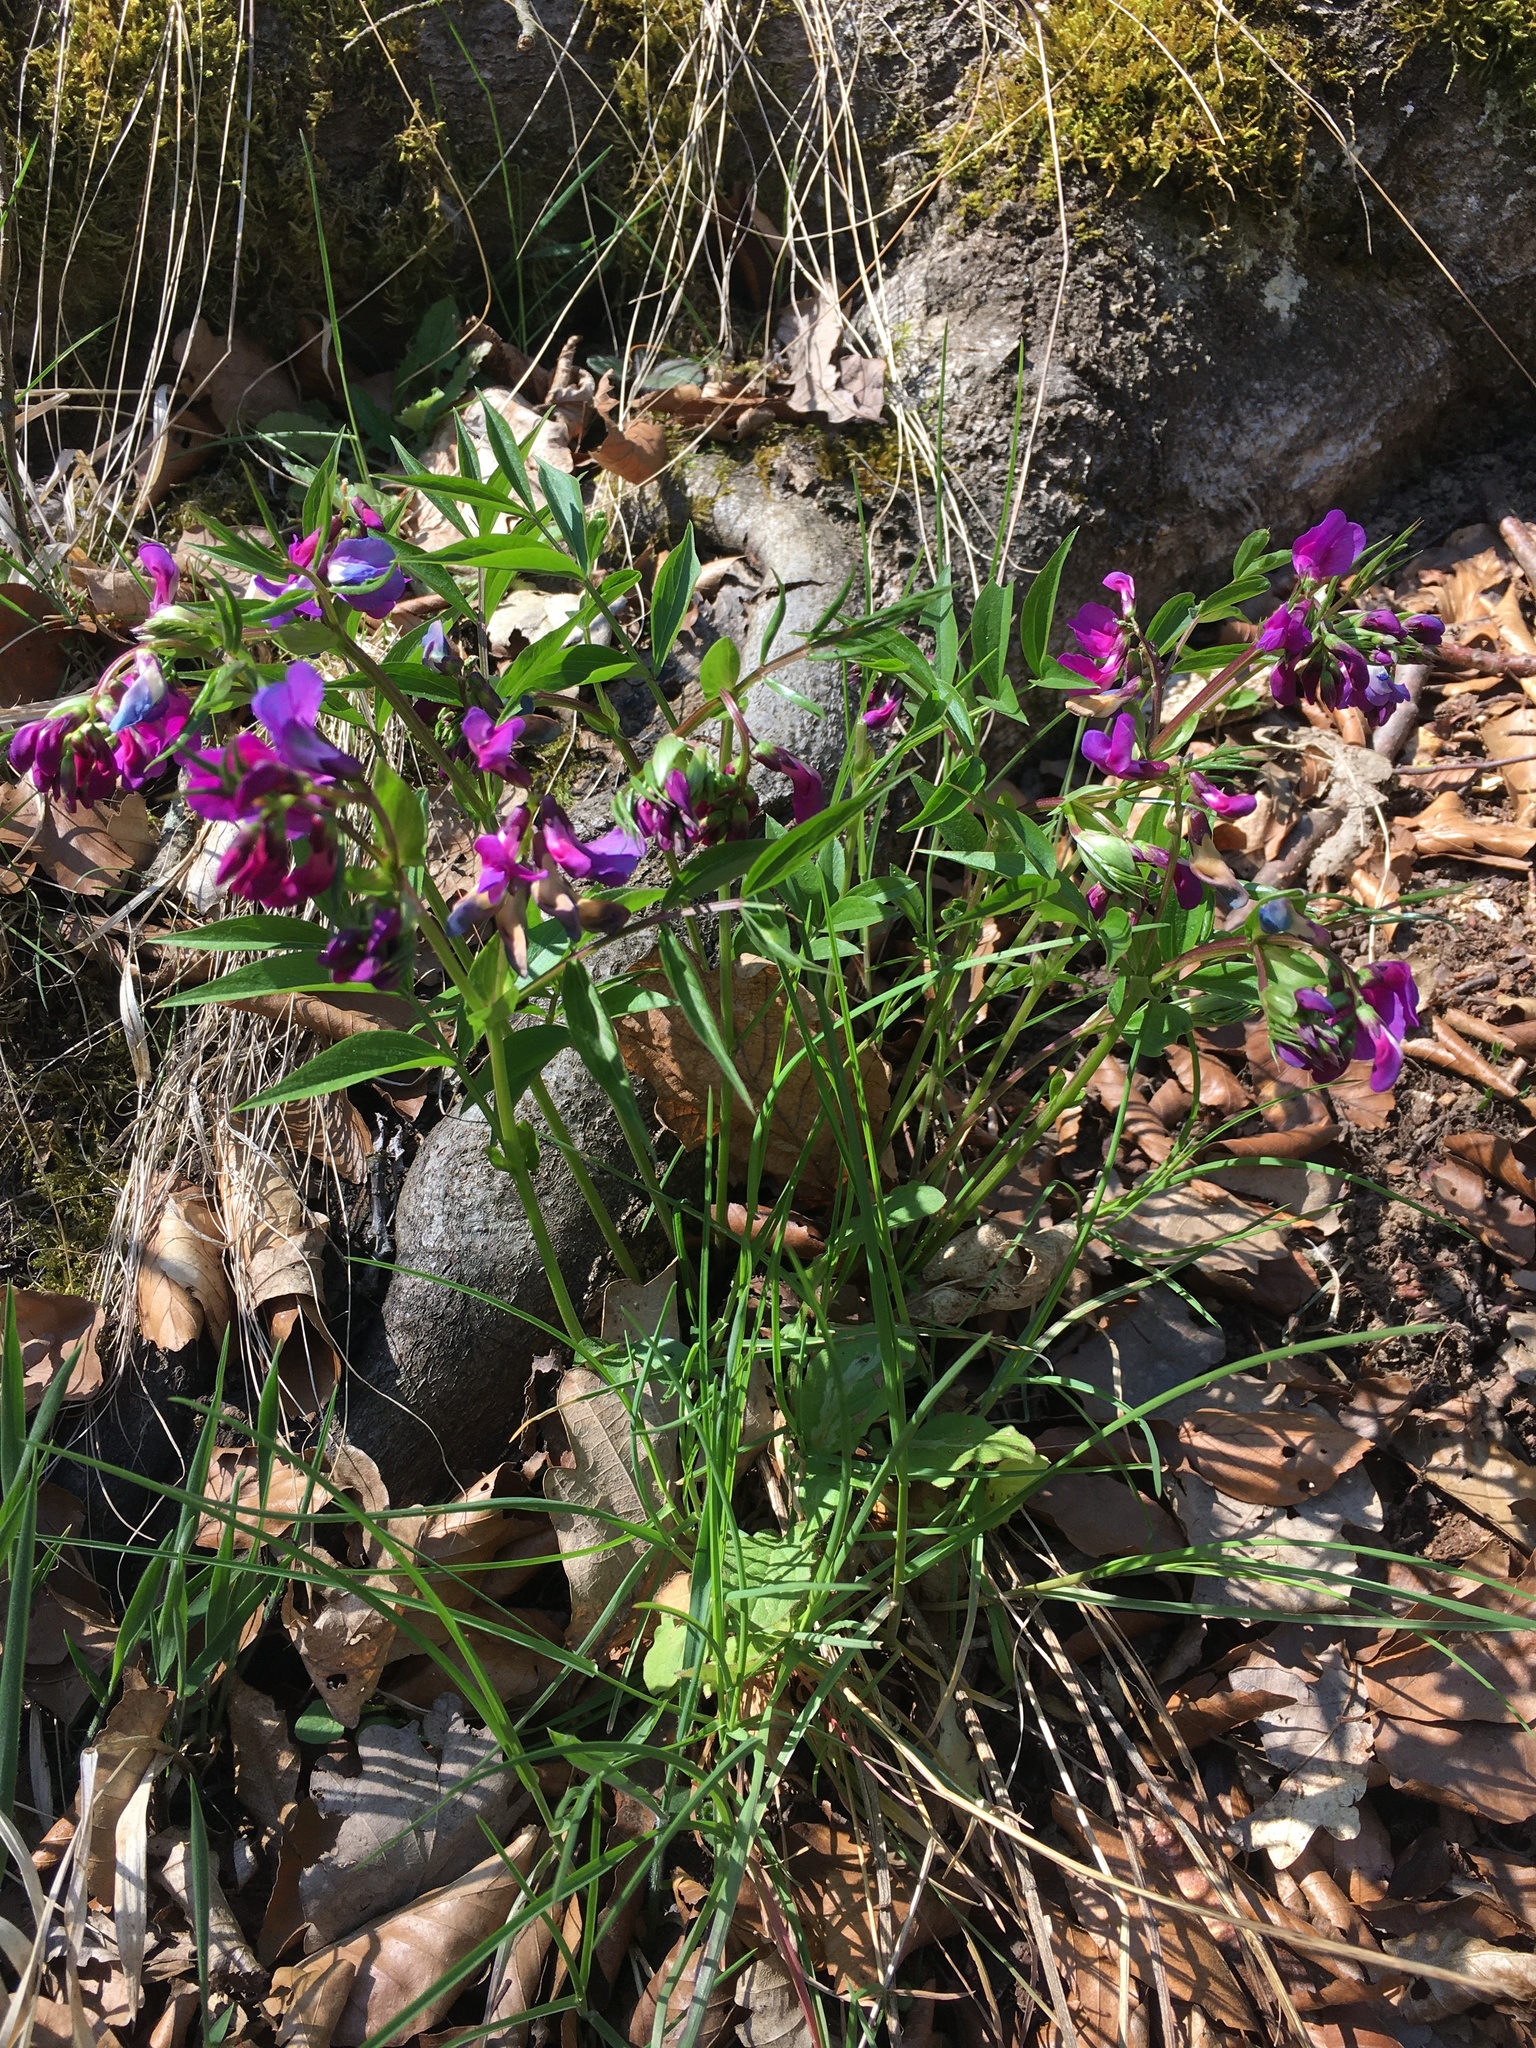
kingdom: Plantae
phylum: Tracheophyta
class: Magnoliopsida
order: Fabales
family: Fabaceae
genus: Lathyrus
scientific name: Lathyrus vernus
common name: Spring pea
